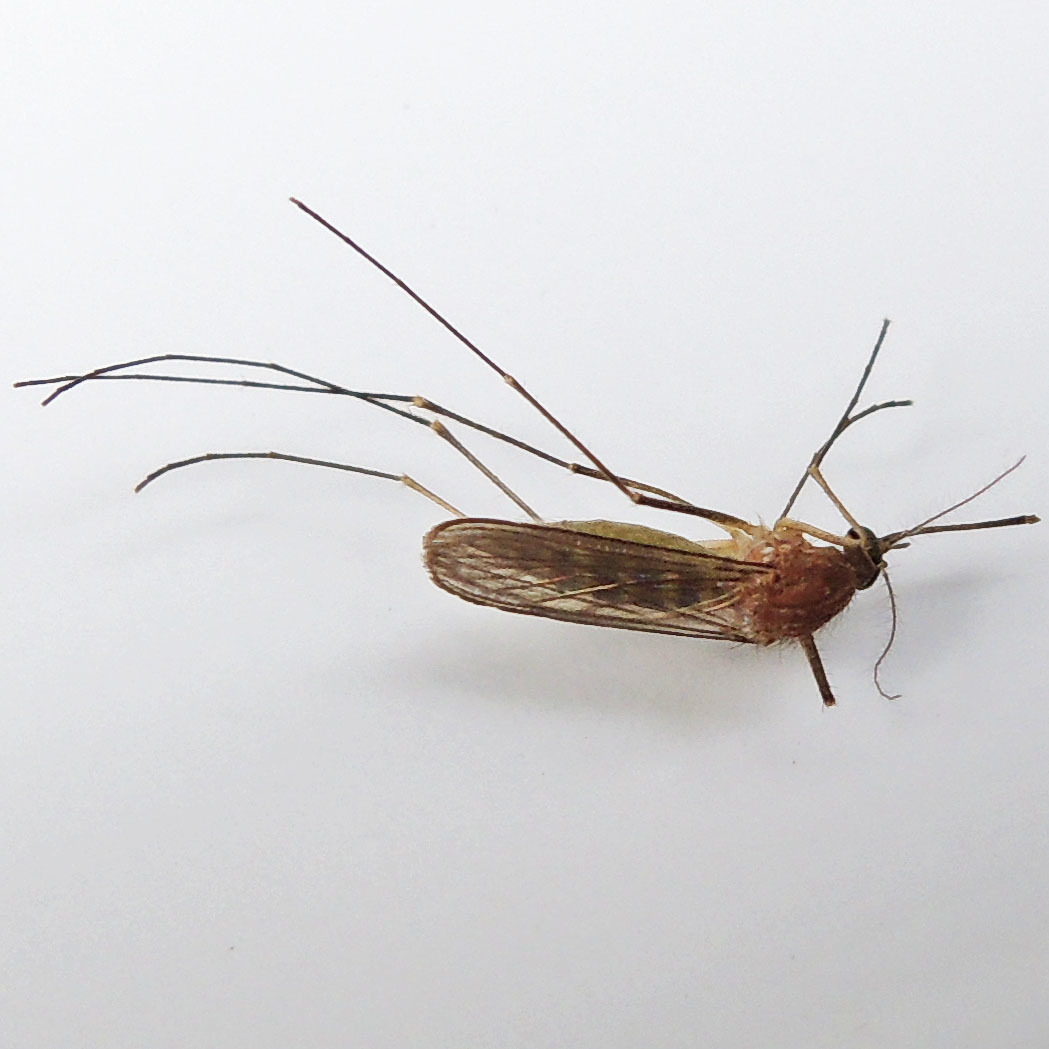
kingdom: Animalia
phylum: Arthropoda
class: Insecta
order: Diptera
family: Culicidae
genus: Culex
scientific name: Culex restuans
